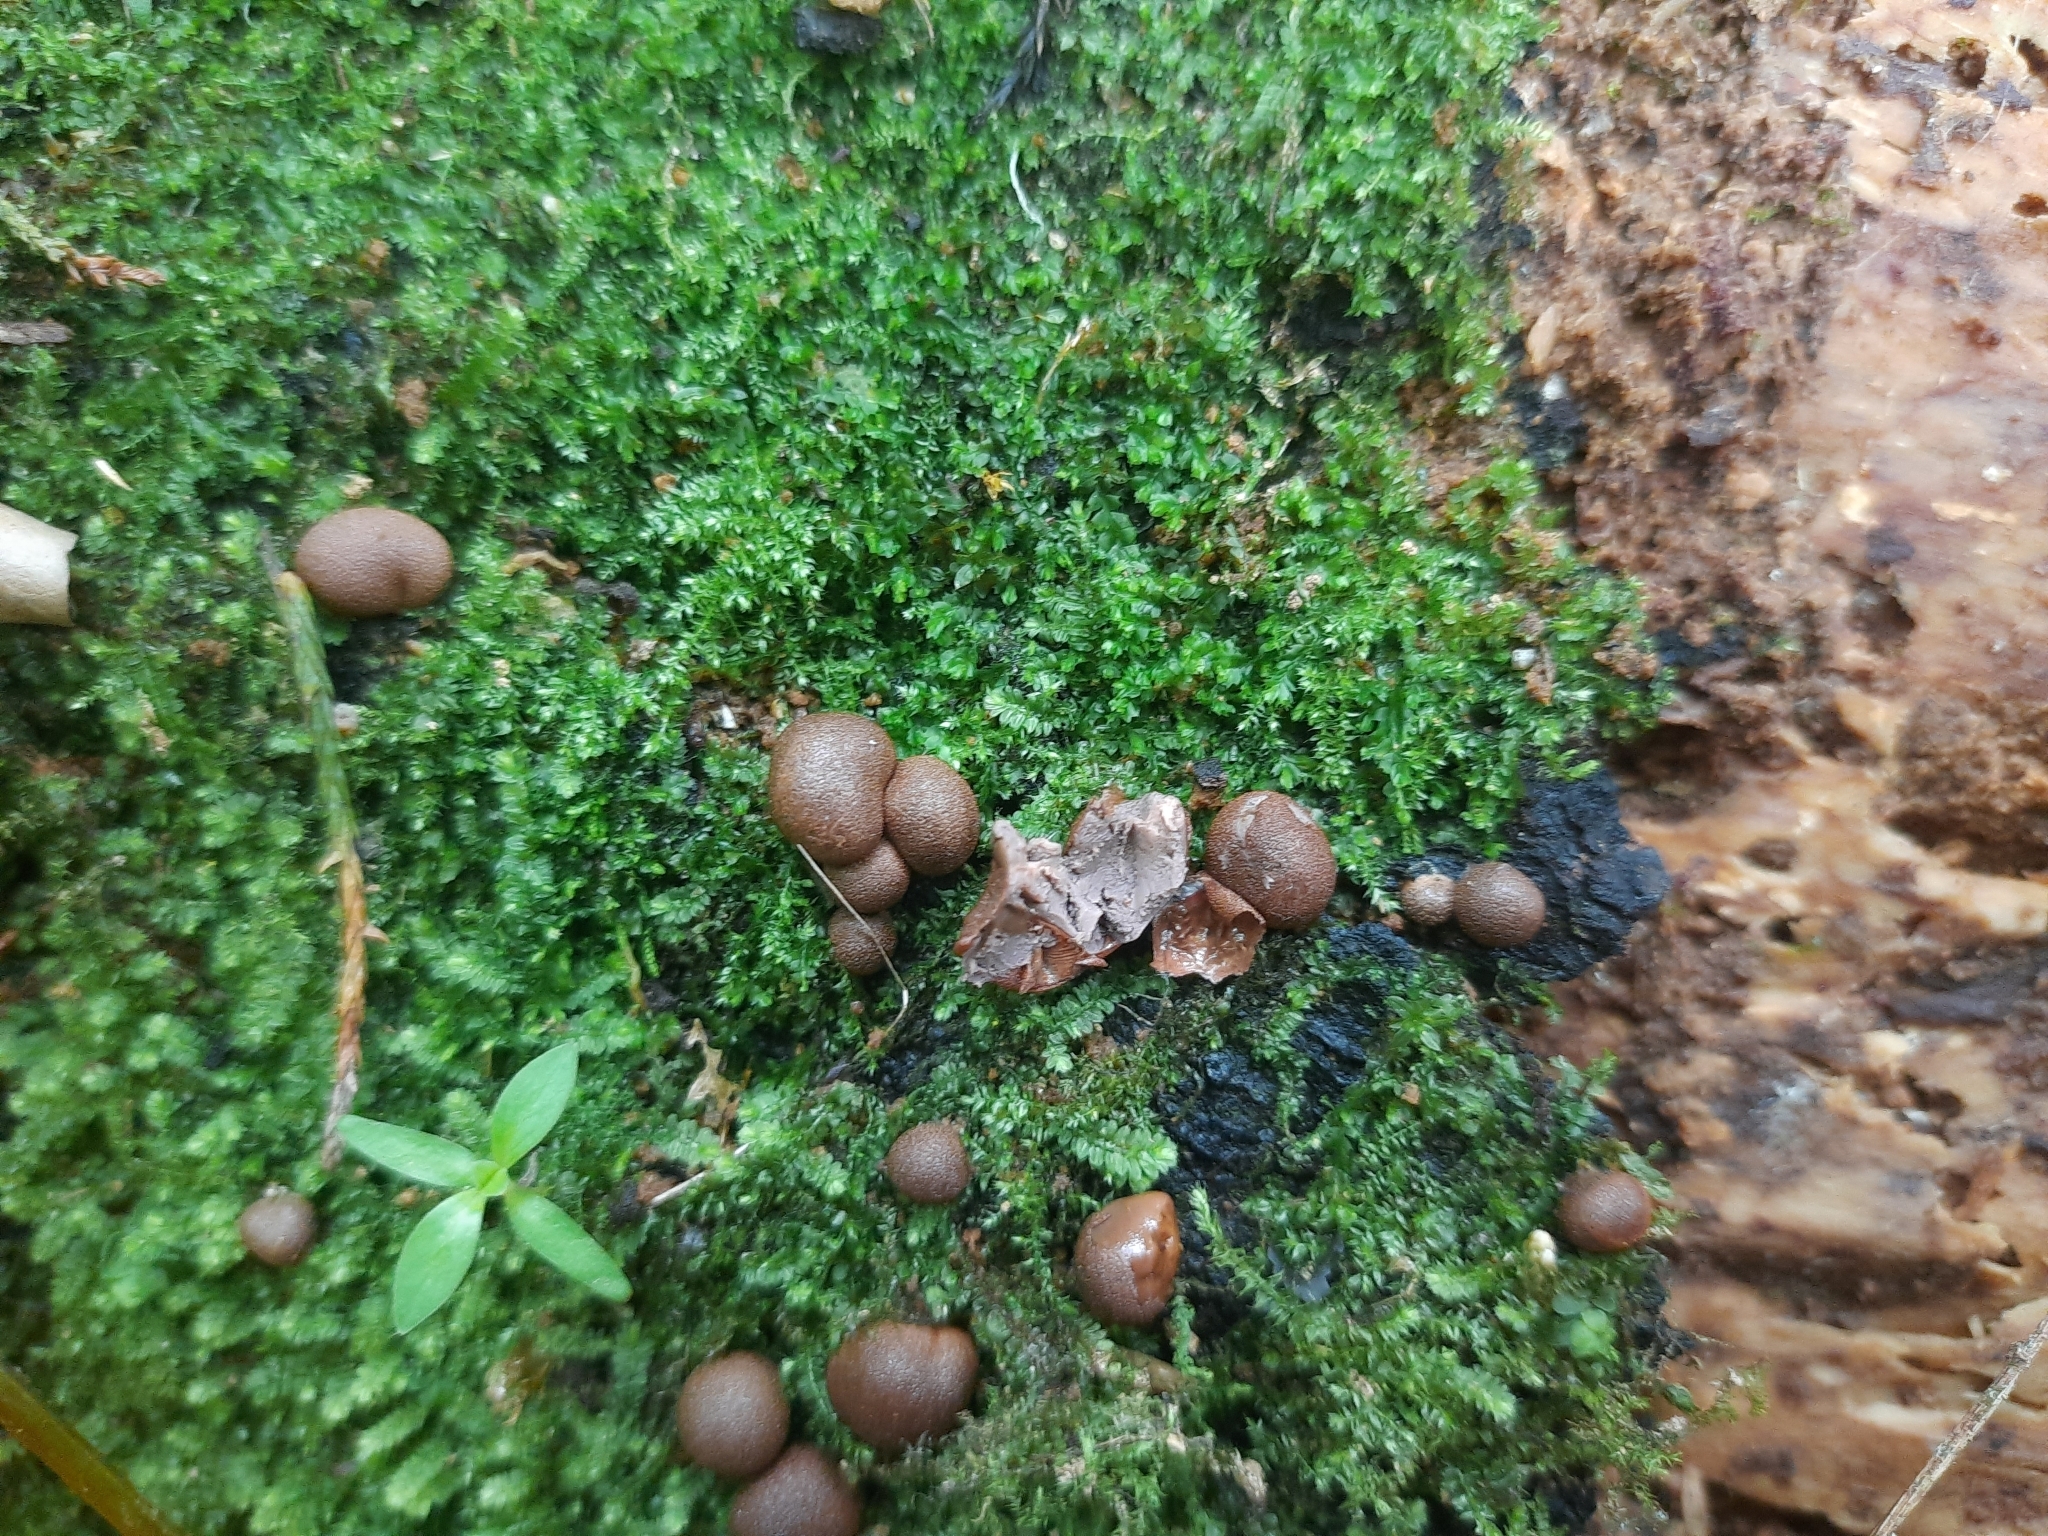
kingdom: Protozoa
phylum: Mycetozoa
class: Myxomycetes
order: Cribrariales
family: Tubiferaceae
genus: Lycogala
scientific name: Lycogala epidendrum
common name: Wolf's milk
